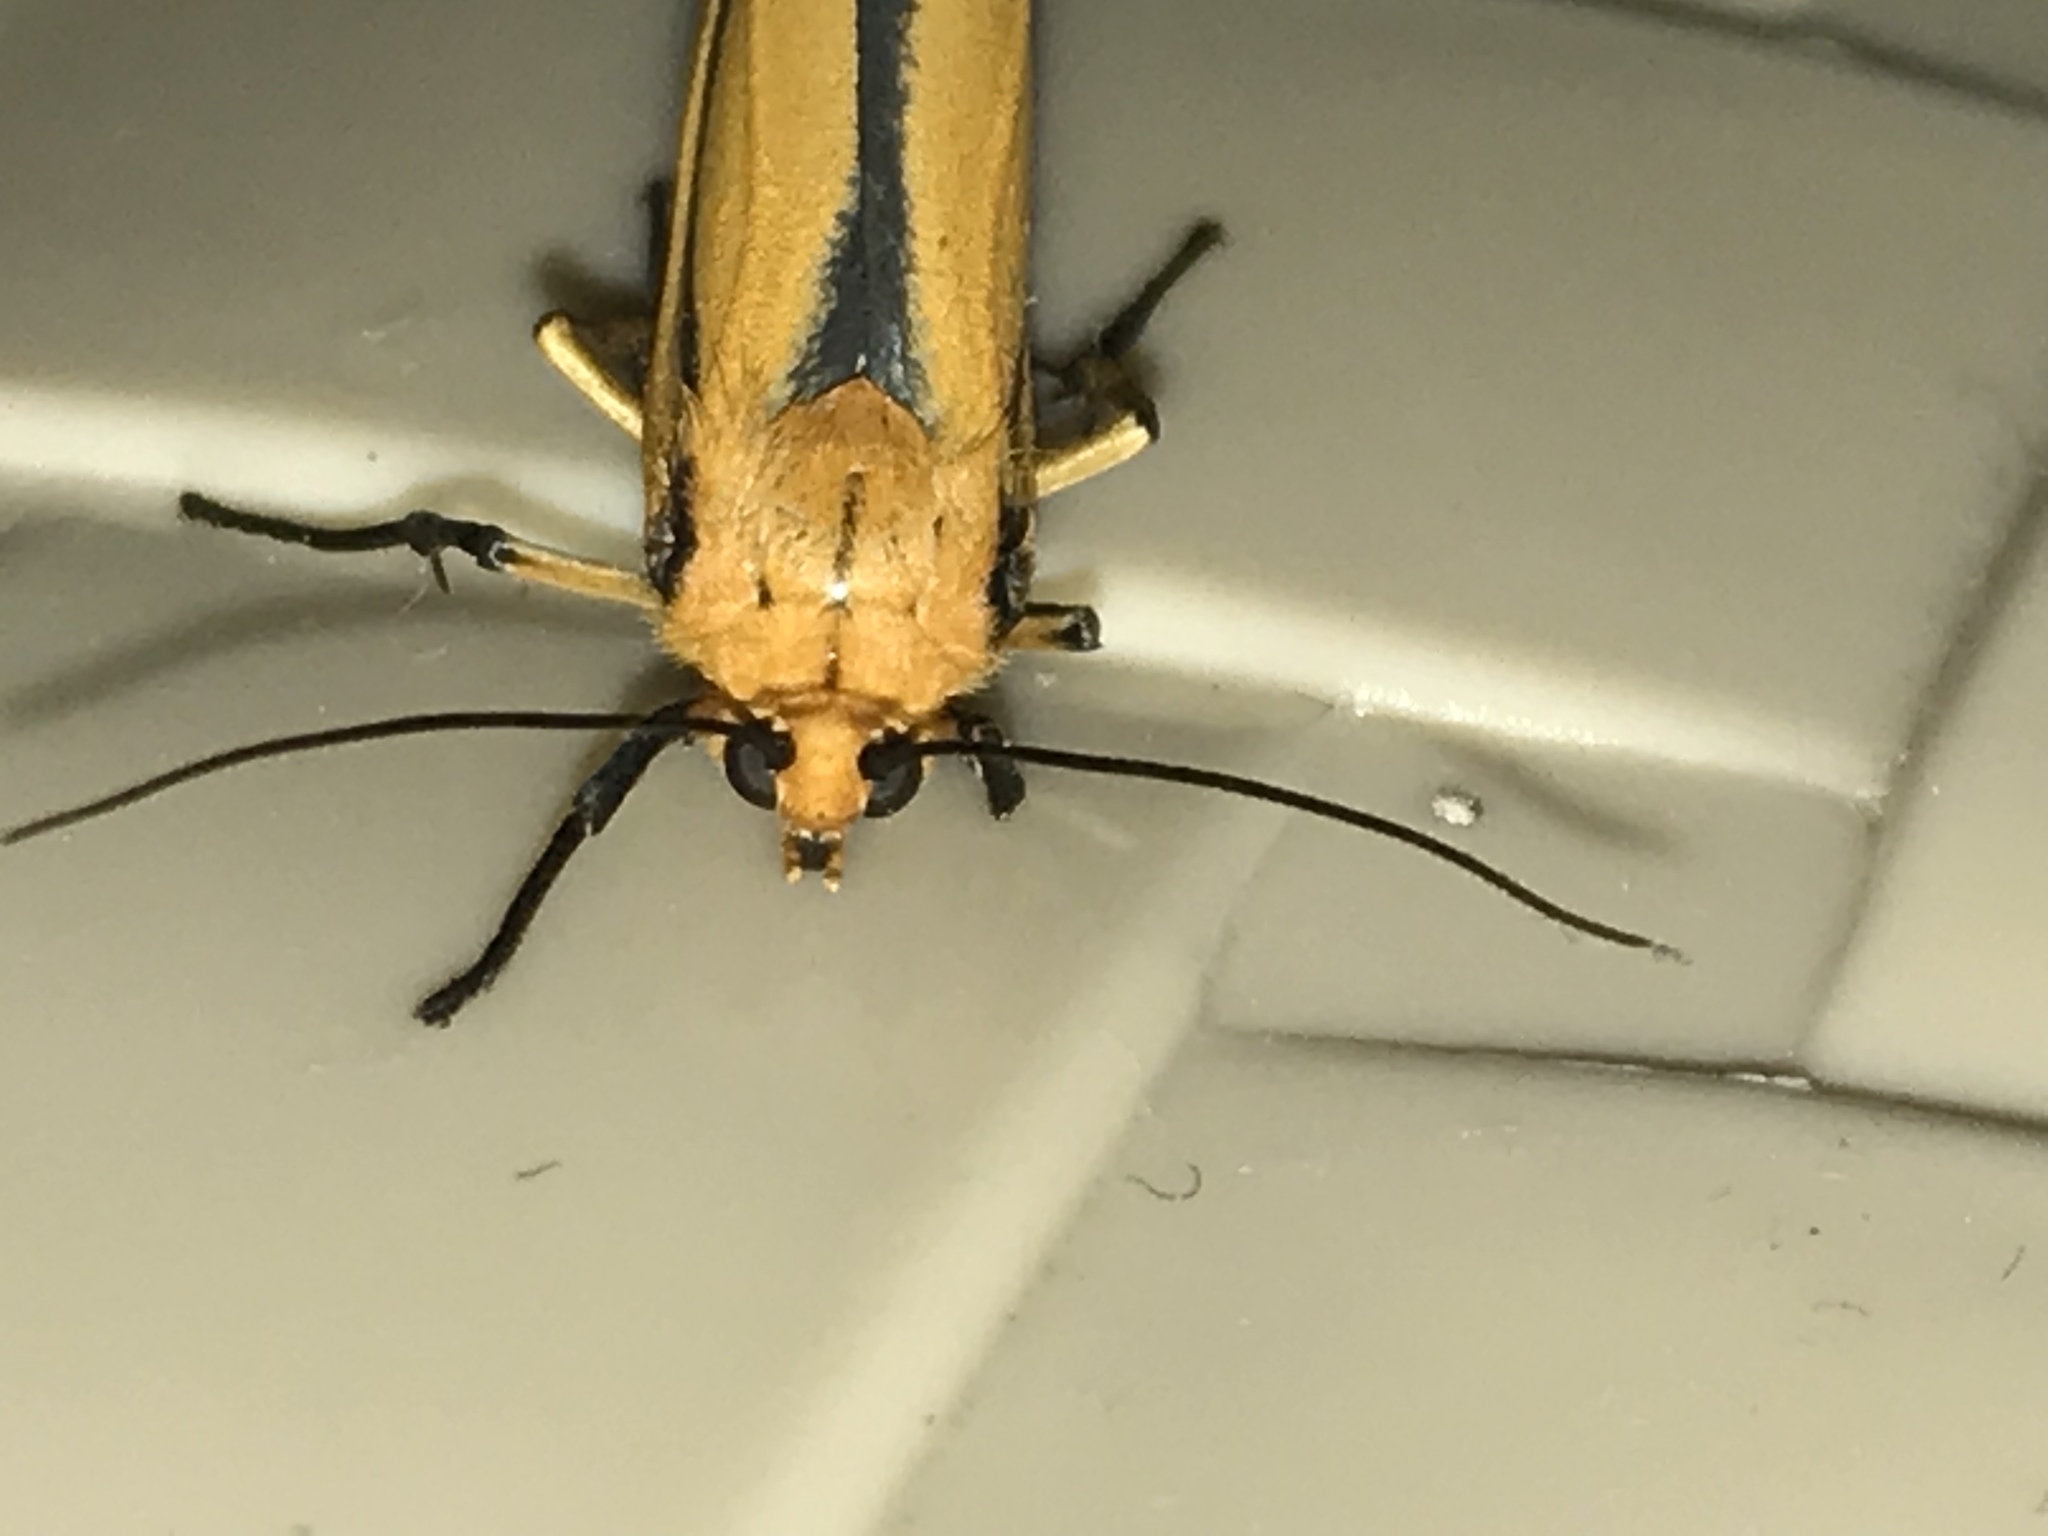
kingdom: Animalia
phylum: Arthropoda
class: Insecta
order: Lepidoptera
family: Erebidae
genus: Eurylomia
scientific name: Eurylomia cordula
